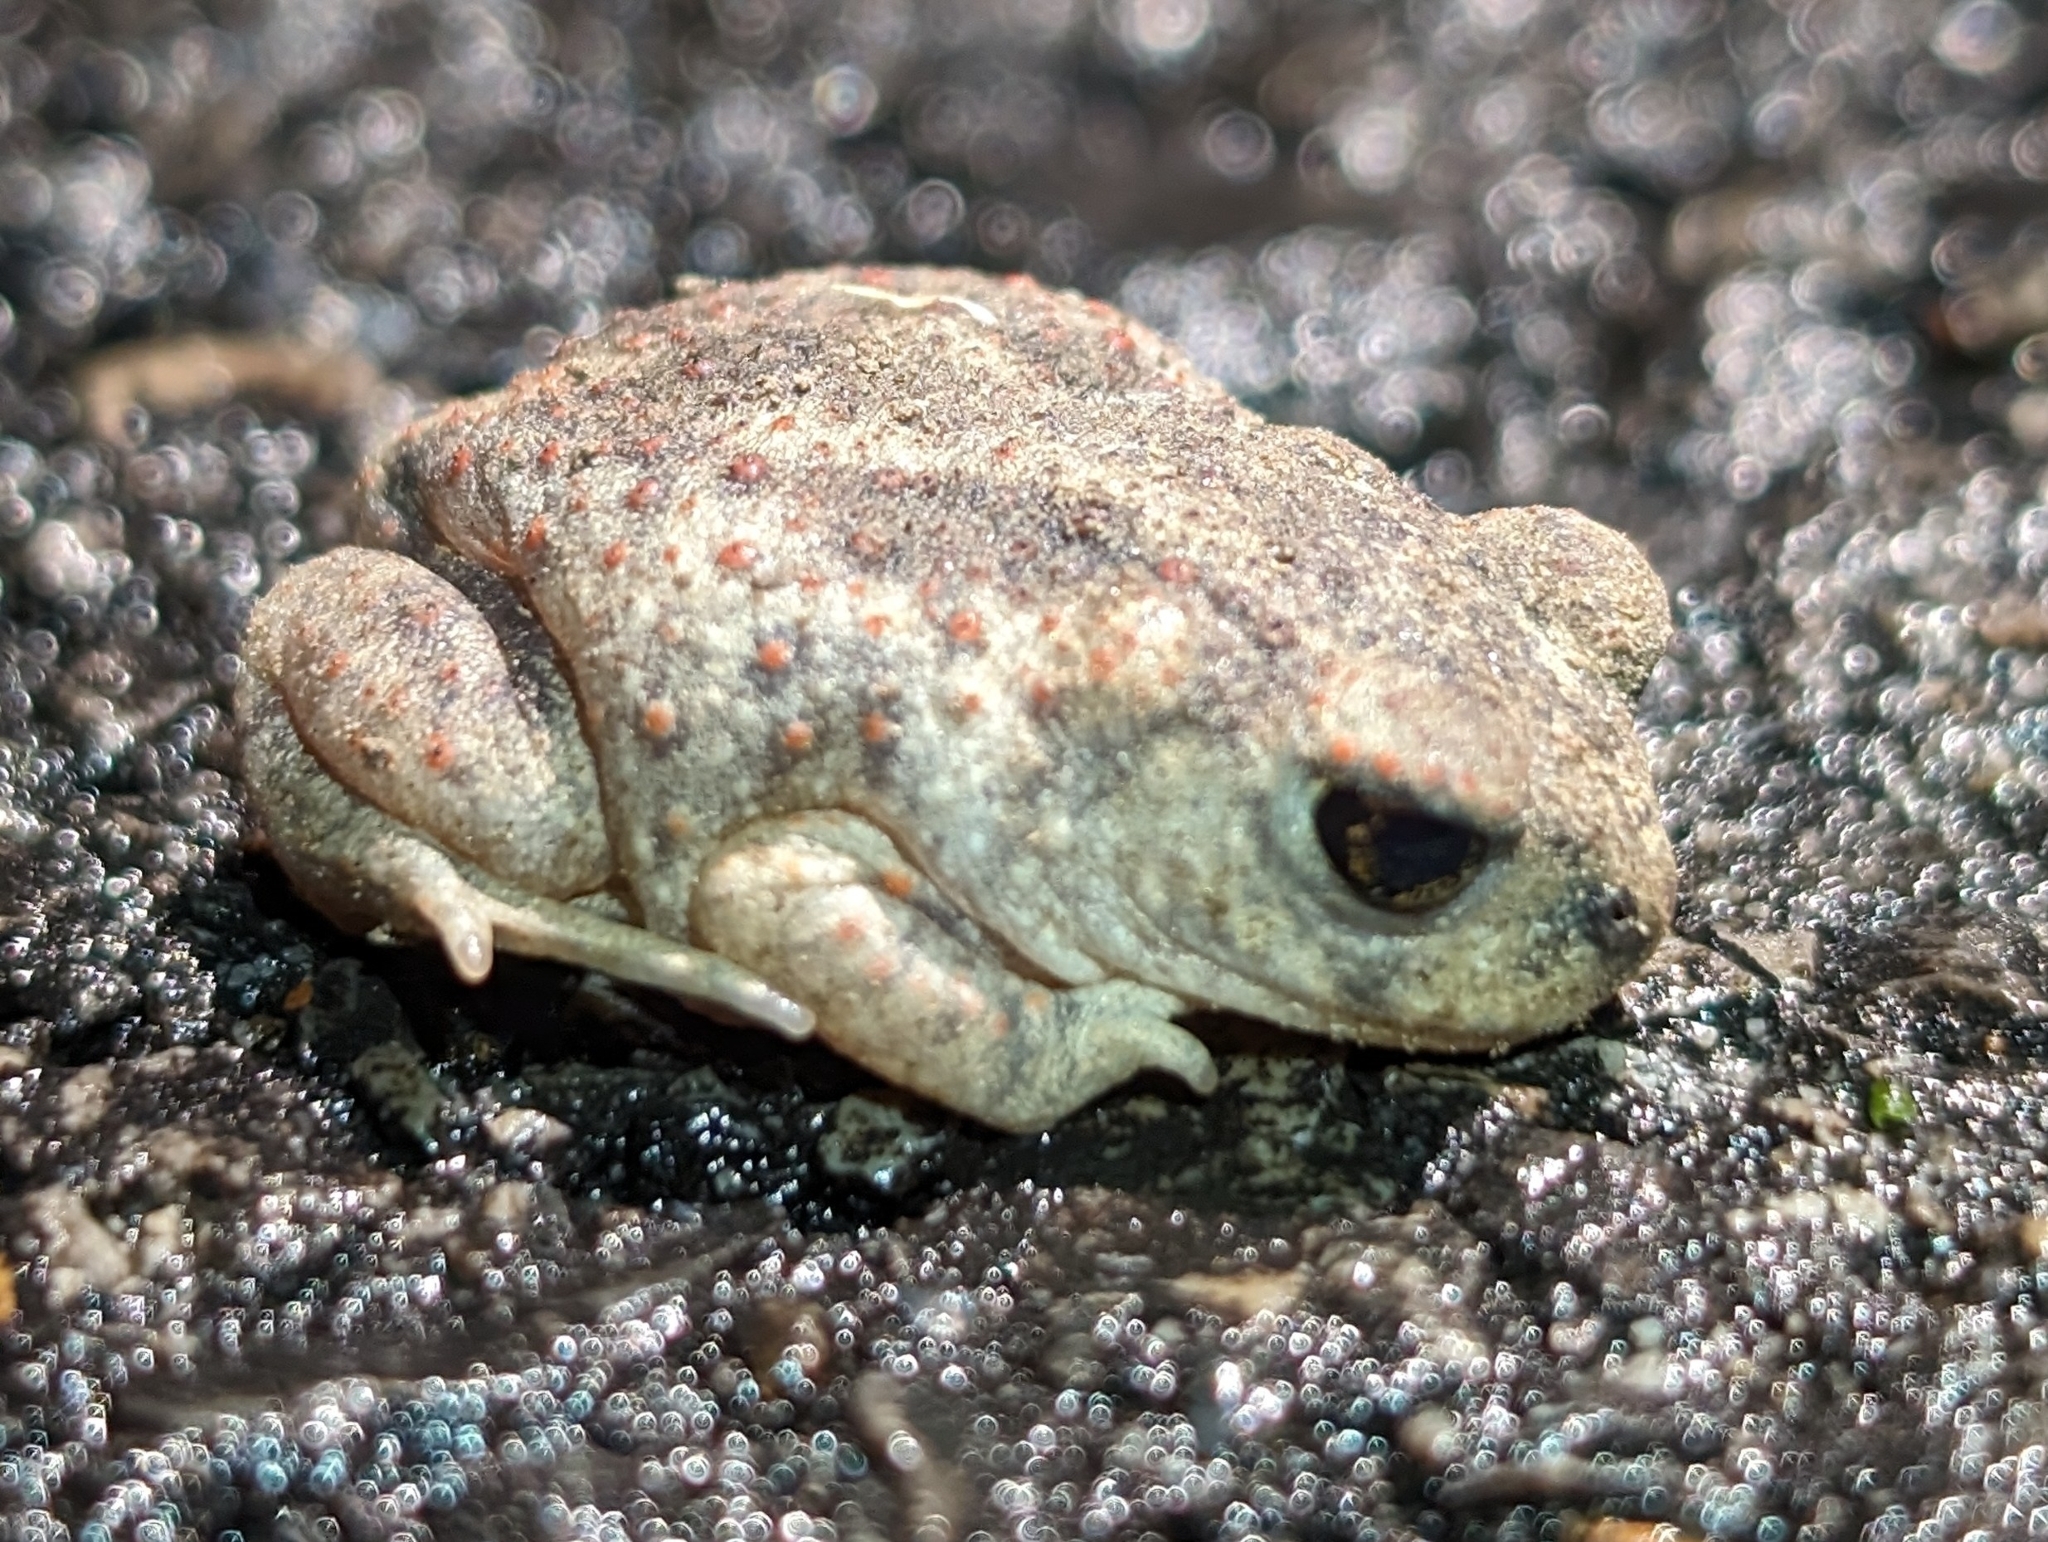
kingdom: Animalia
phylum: Chordata
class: Amphibia
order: Anura
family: Scaphiopodidae
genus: Scaphiopus
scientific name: Scaphiopus holbrookii
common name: Eastern spadefoot toad
